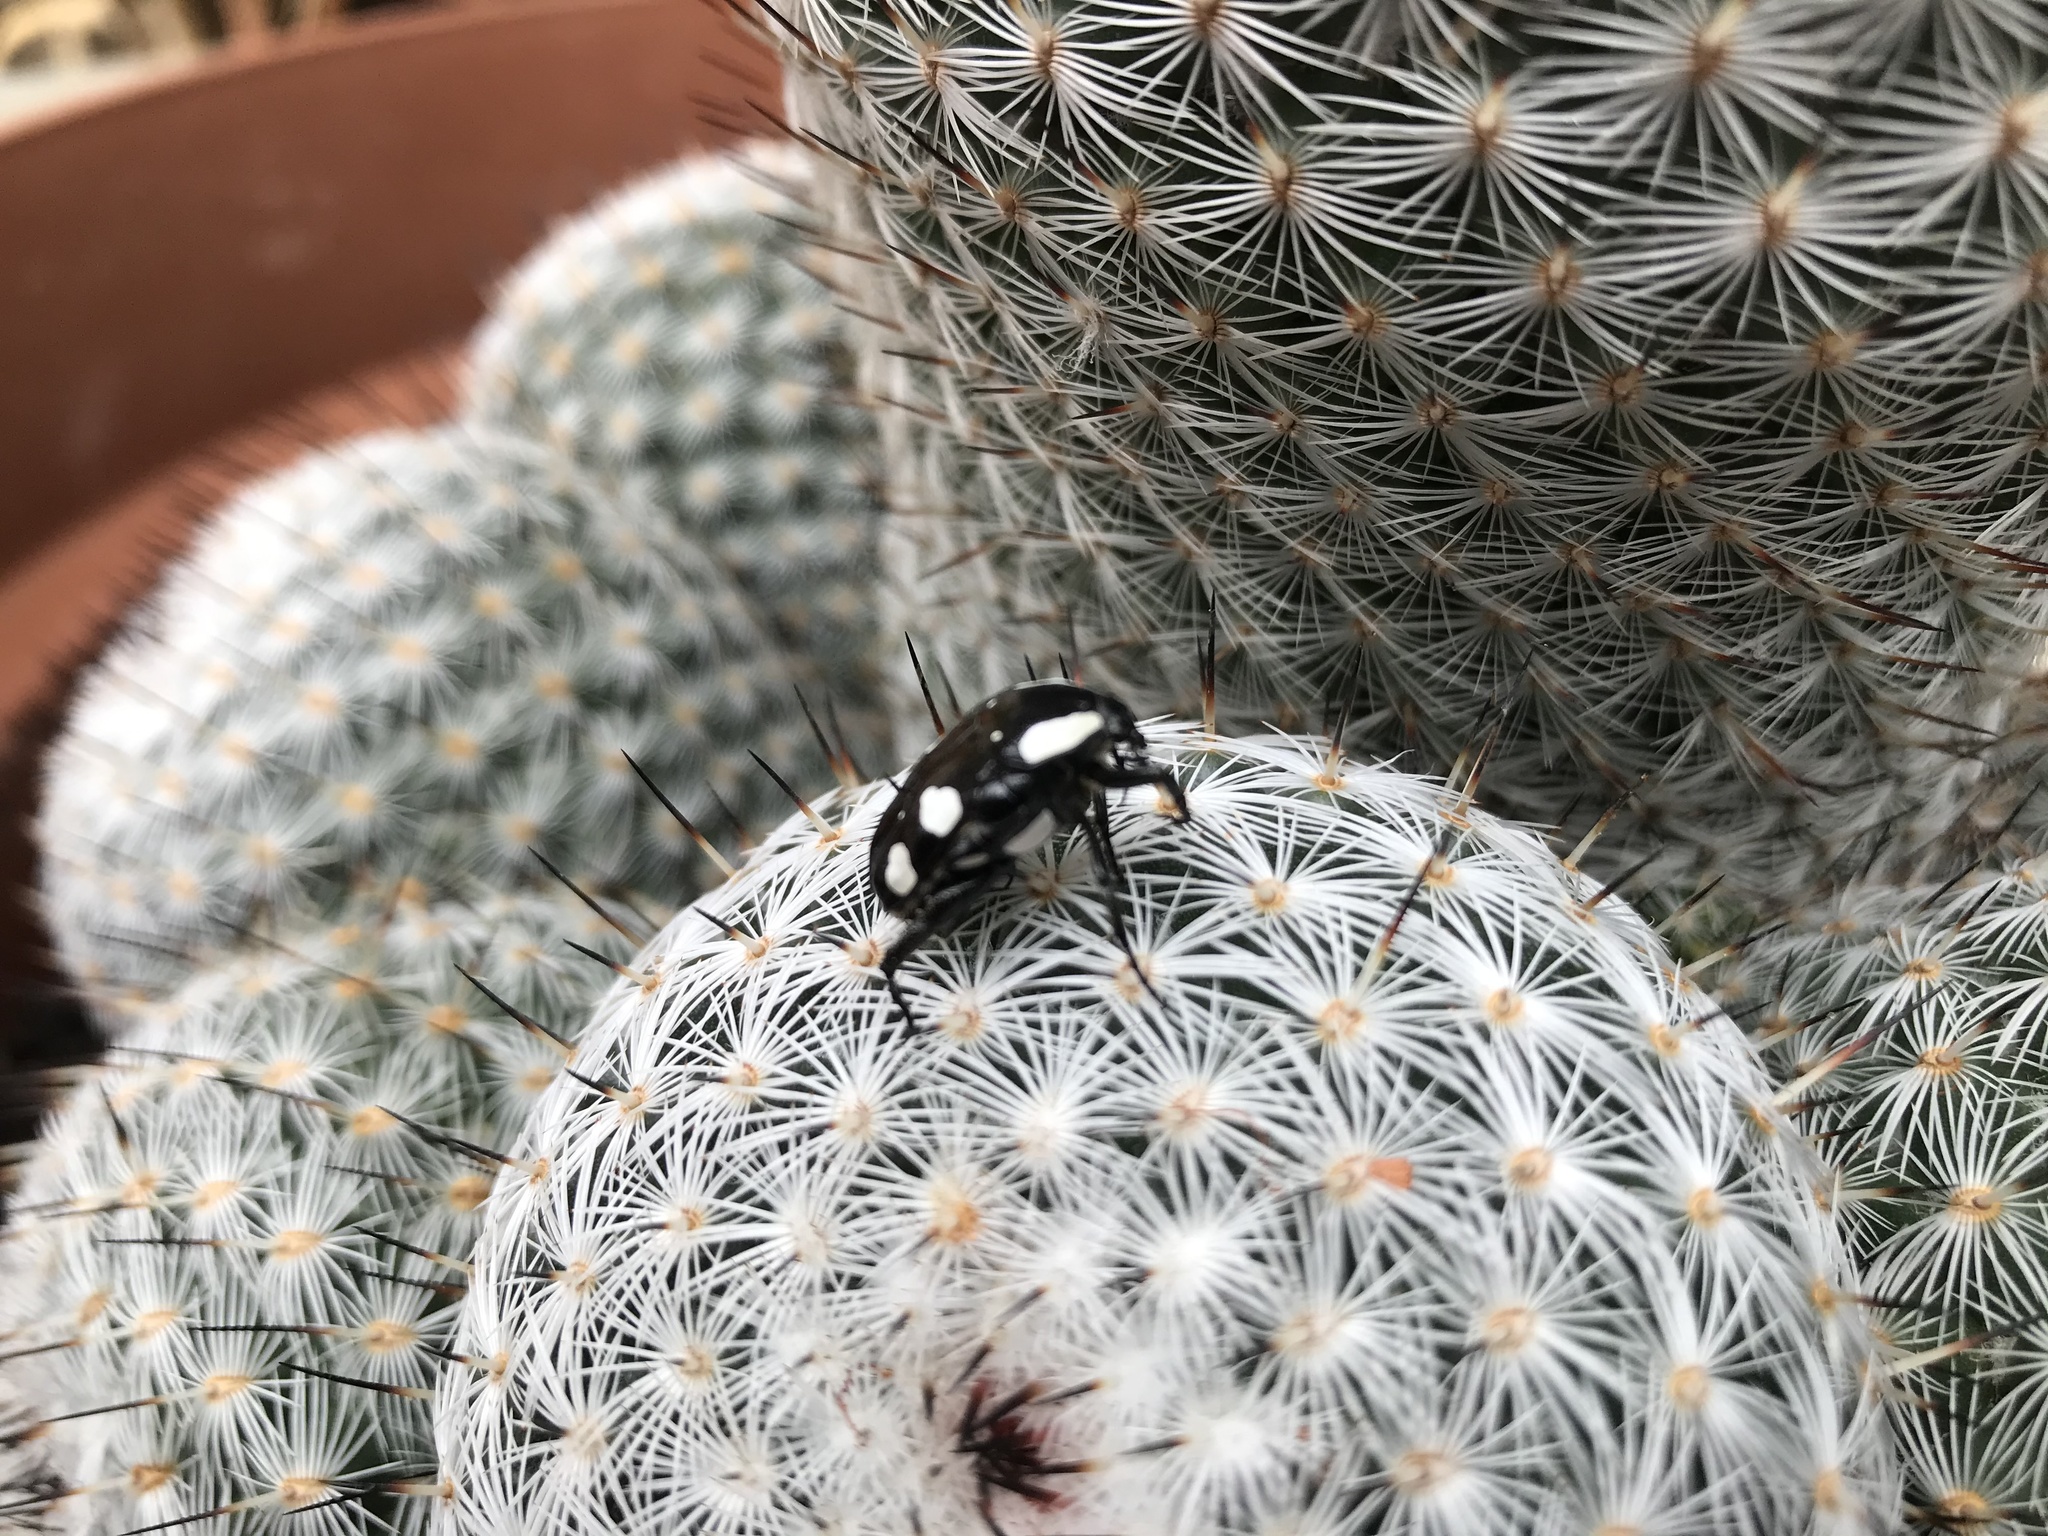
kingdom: Animalia
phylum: Arthropoda
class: Insecta
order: Coleoptera
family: Scarabaeidae
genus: Mausoleopsis
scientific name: Mausoleopsis amabilis
